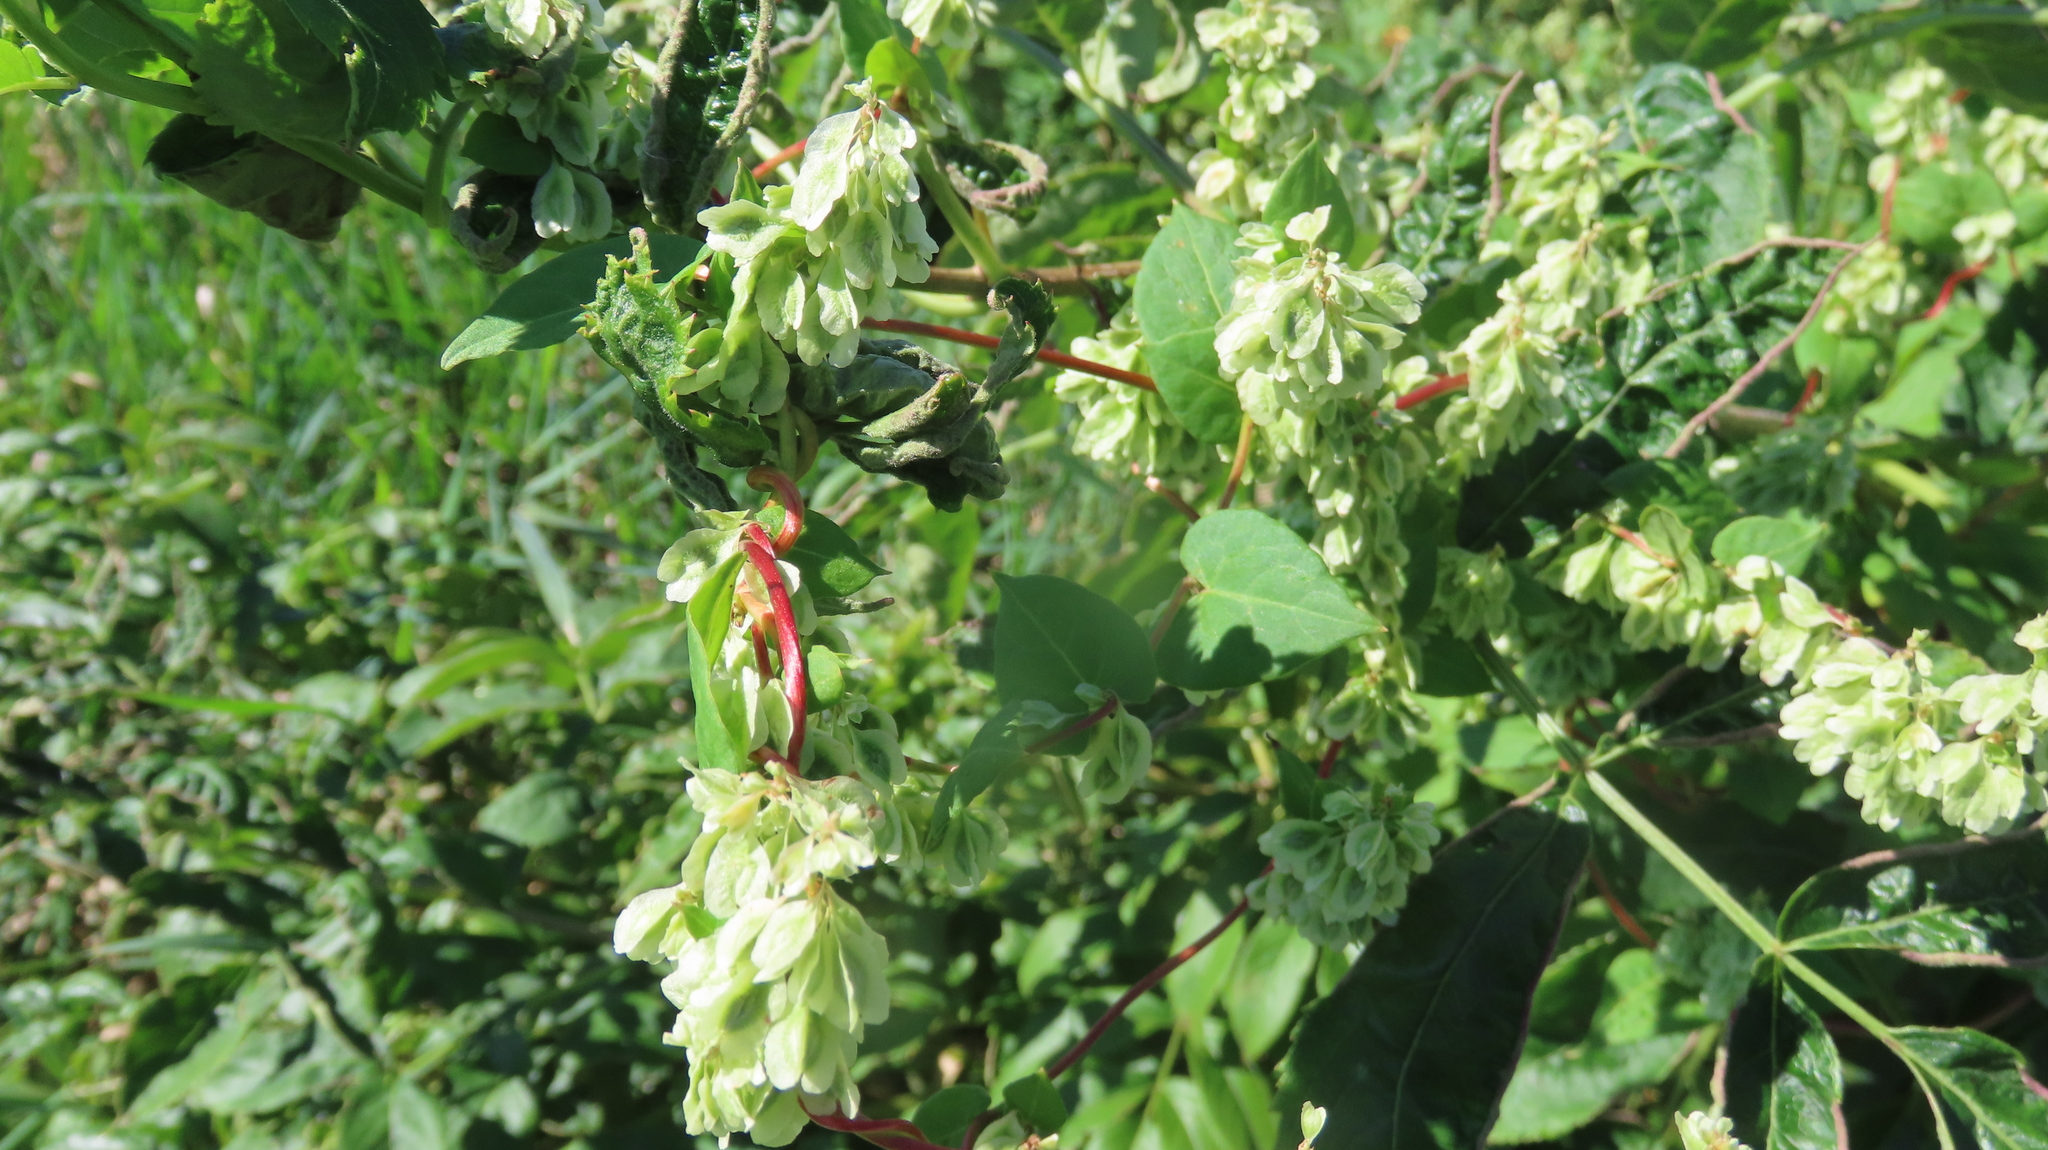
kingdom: Plantae
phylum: Tracheophyta
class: Magnoliopsida
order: Caryophyllales
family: Polygonaceae
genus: Fallopia
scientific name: Fallopia scandens
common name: Climbing false buckwheat
